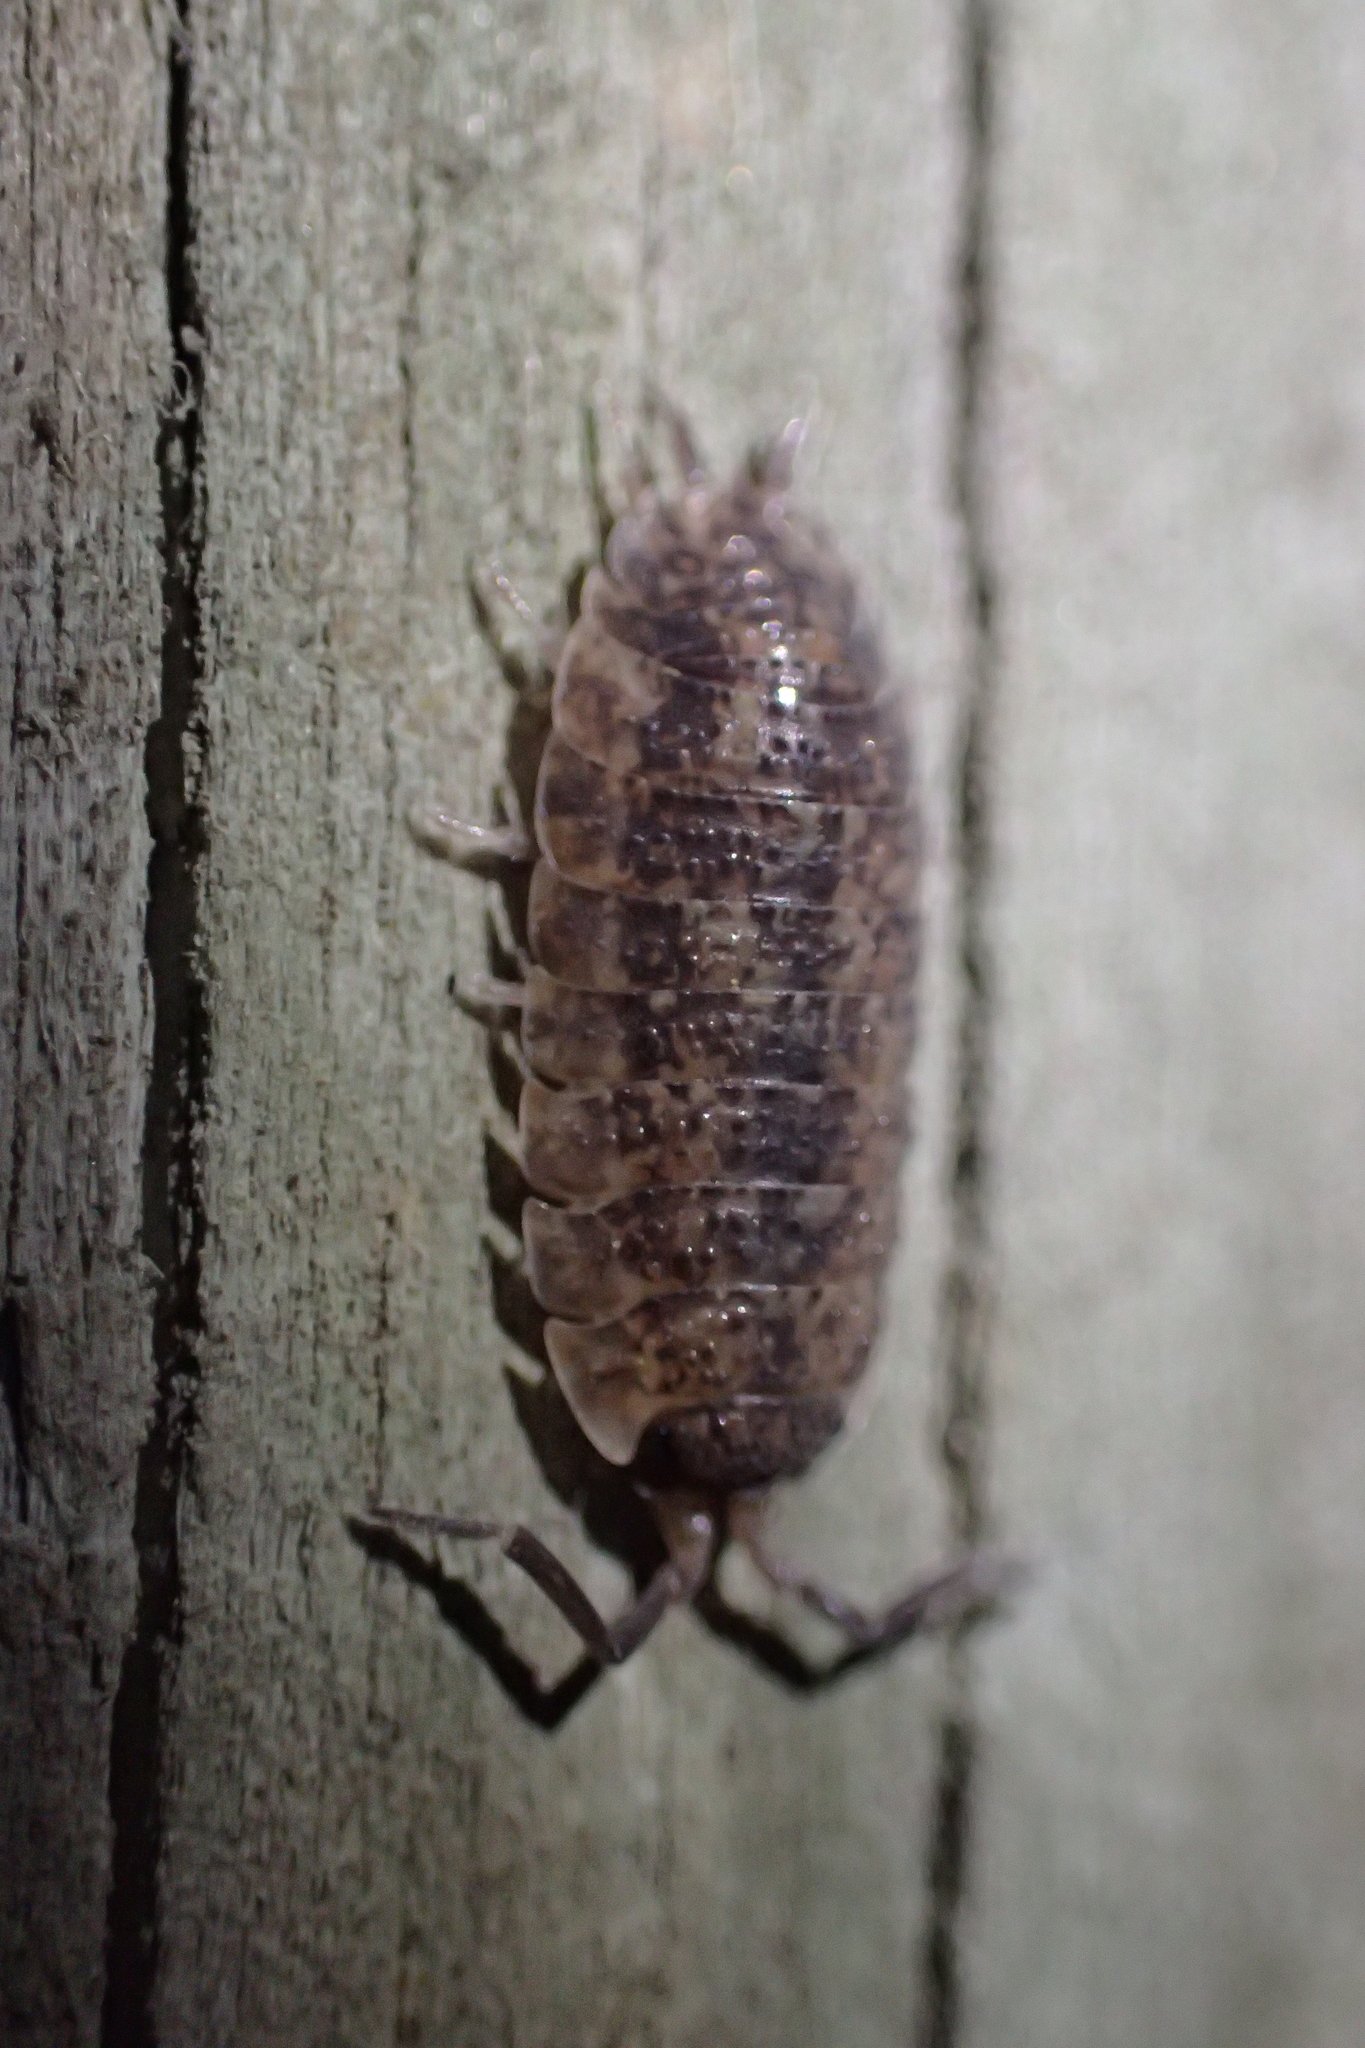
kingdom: Animalia
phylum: Arthropoda
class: Malacostraca
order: Isopoda
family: Porcellionidae
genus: Porcellio
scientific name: Porcellio scaber
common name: Common rough woodlouse
